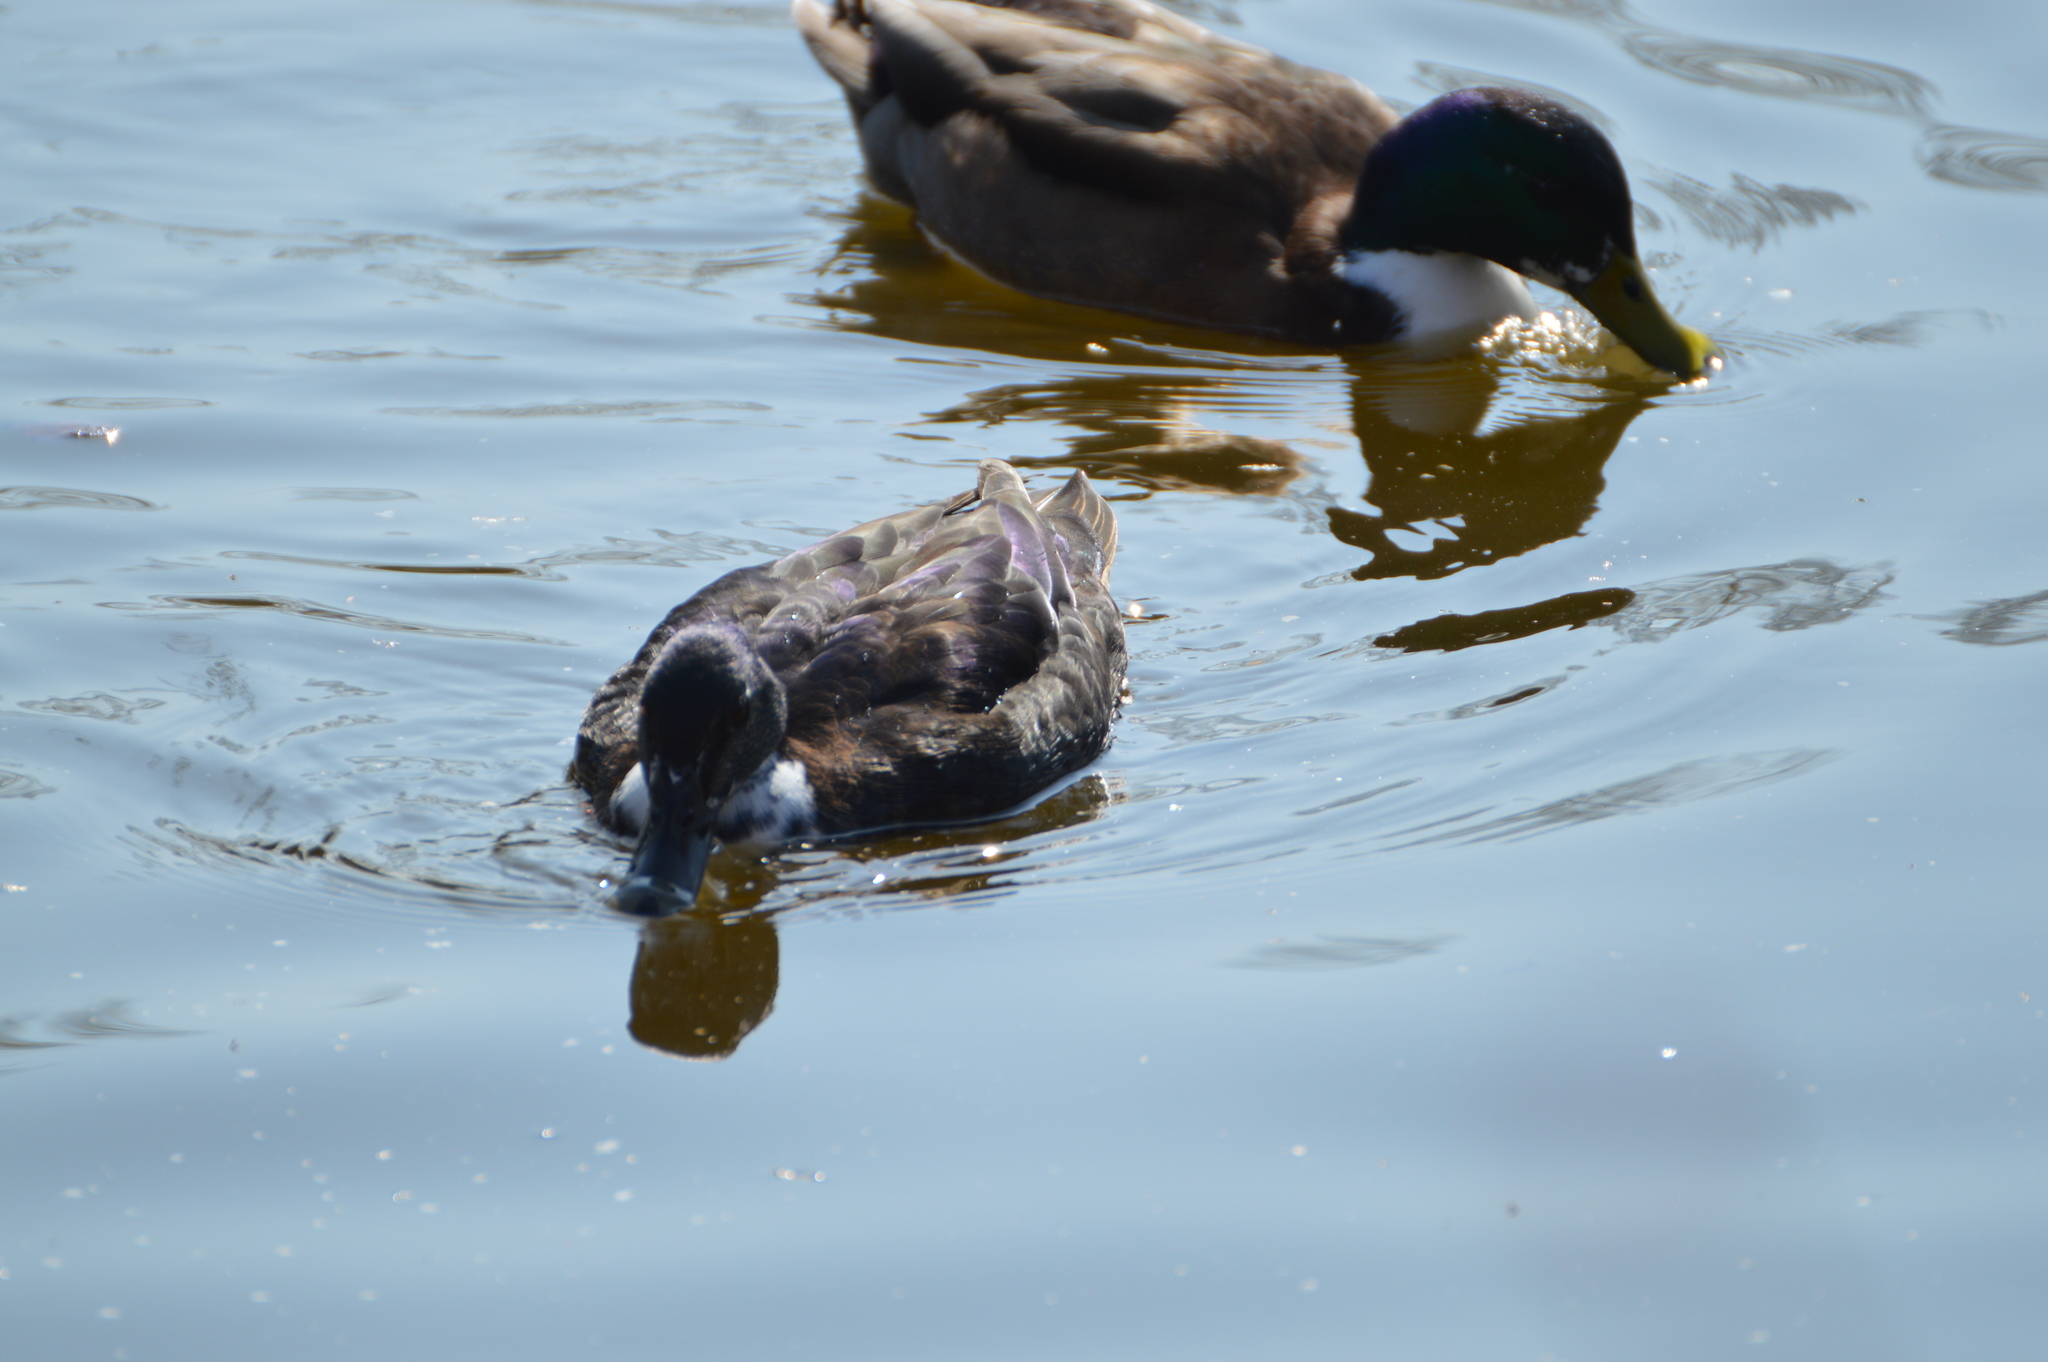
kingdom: Animalia
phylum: Chordata
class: Aves
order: Anseriformes
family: Anatidae
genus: Anas
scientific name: Anas platyrhynchos
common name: Mallard
